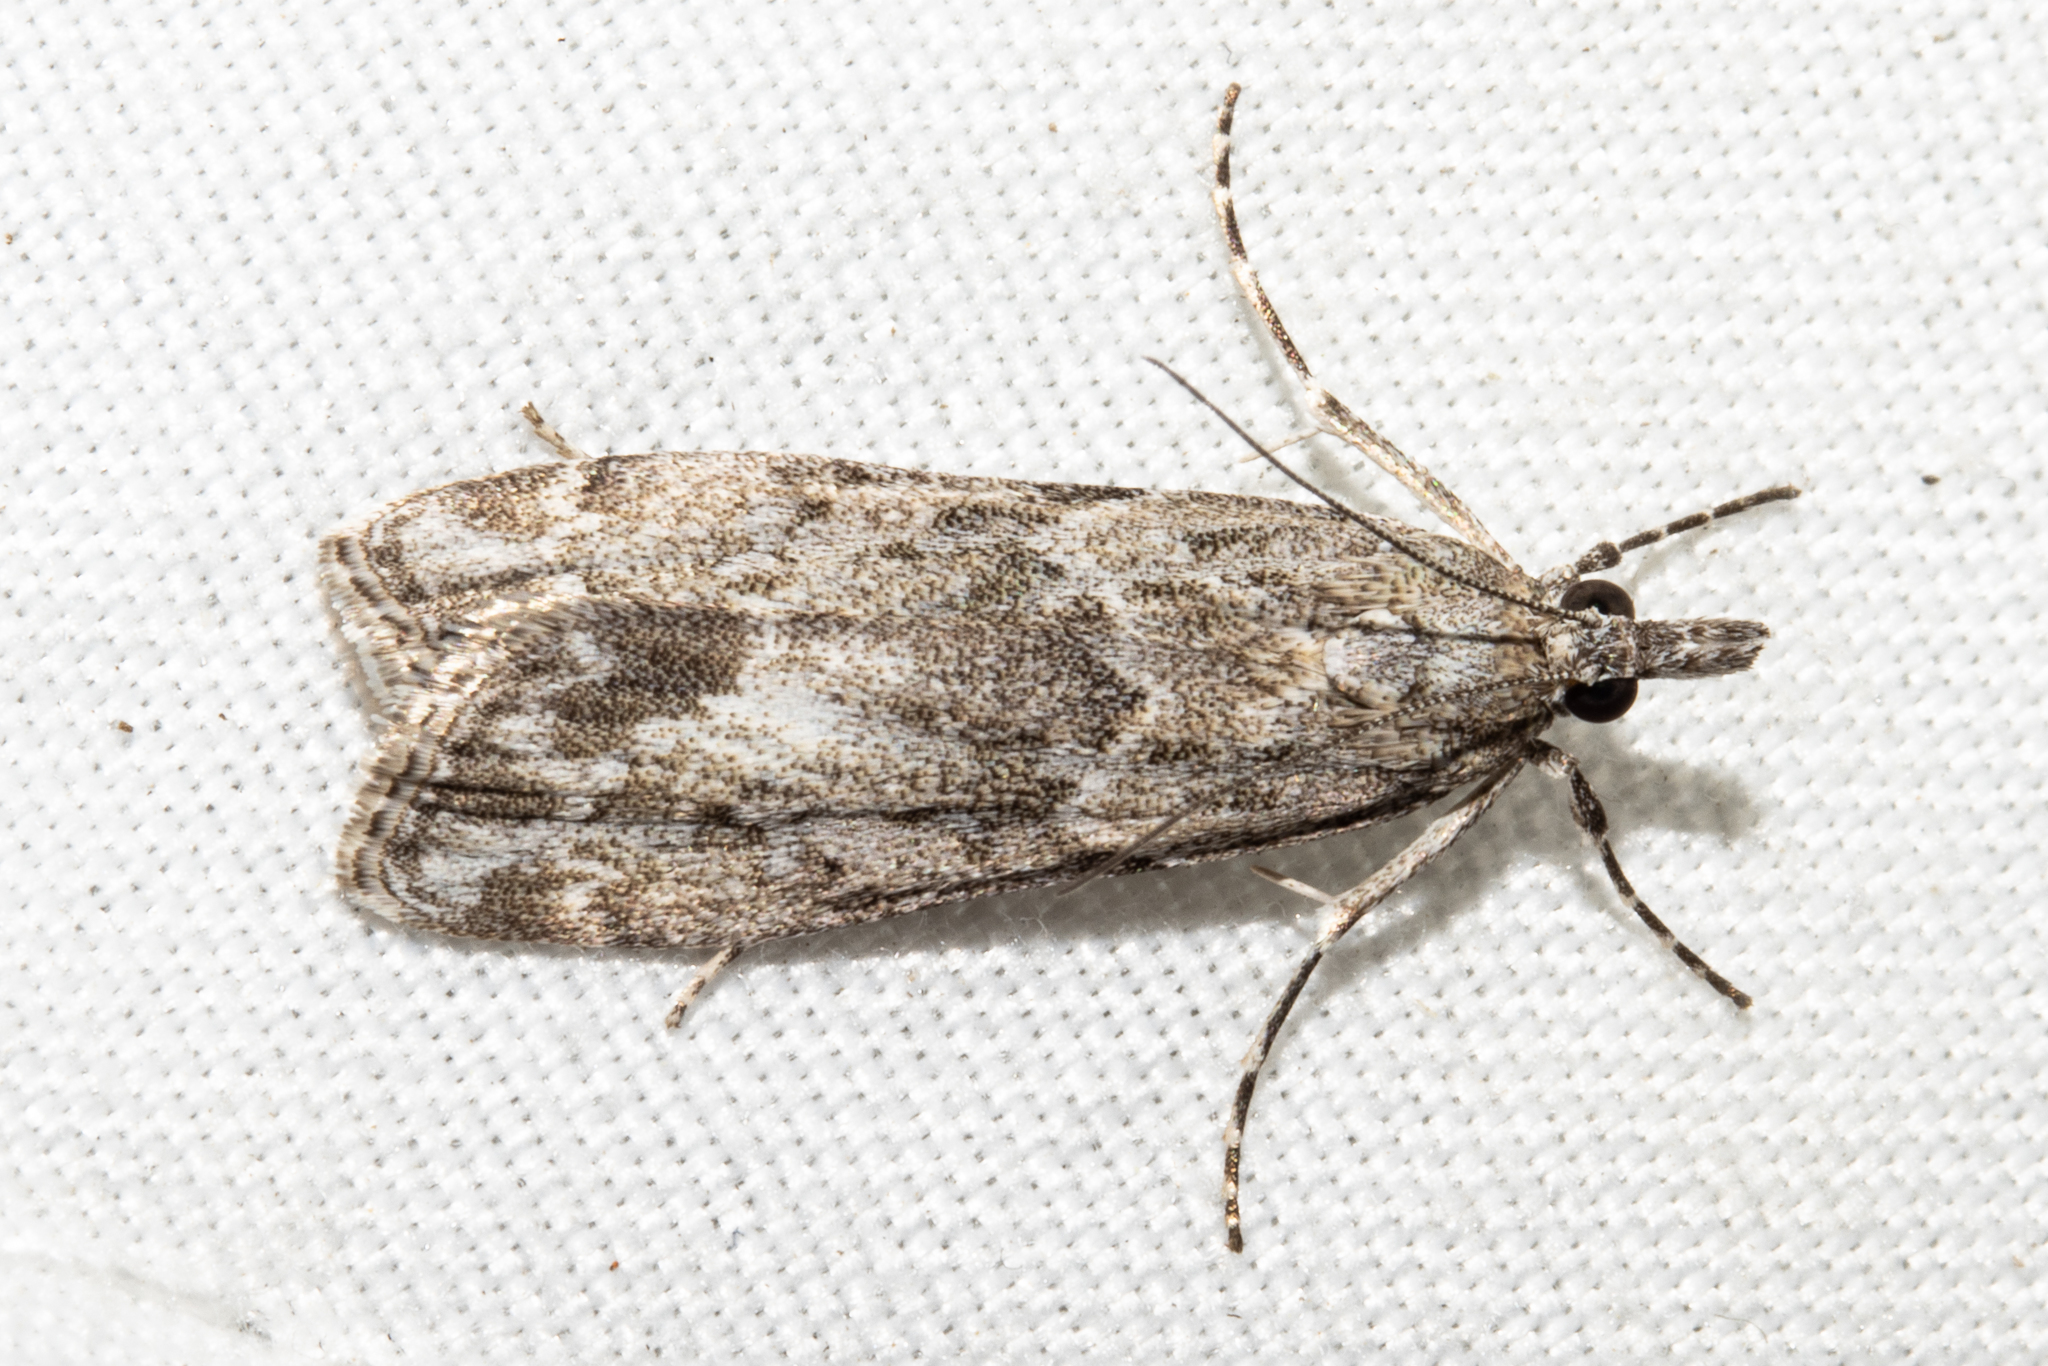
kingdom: Animalia
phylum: Arthropoda
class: Insecta
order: Lepidoptera
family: Crambidae
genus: Eudonia
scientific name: Eudonia rakaiensis
